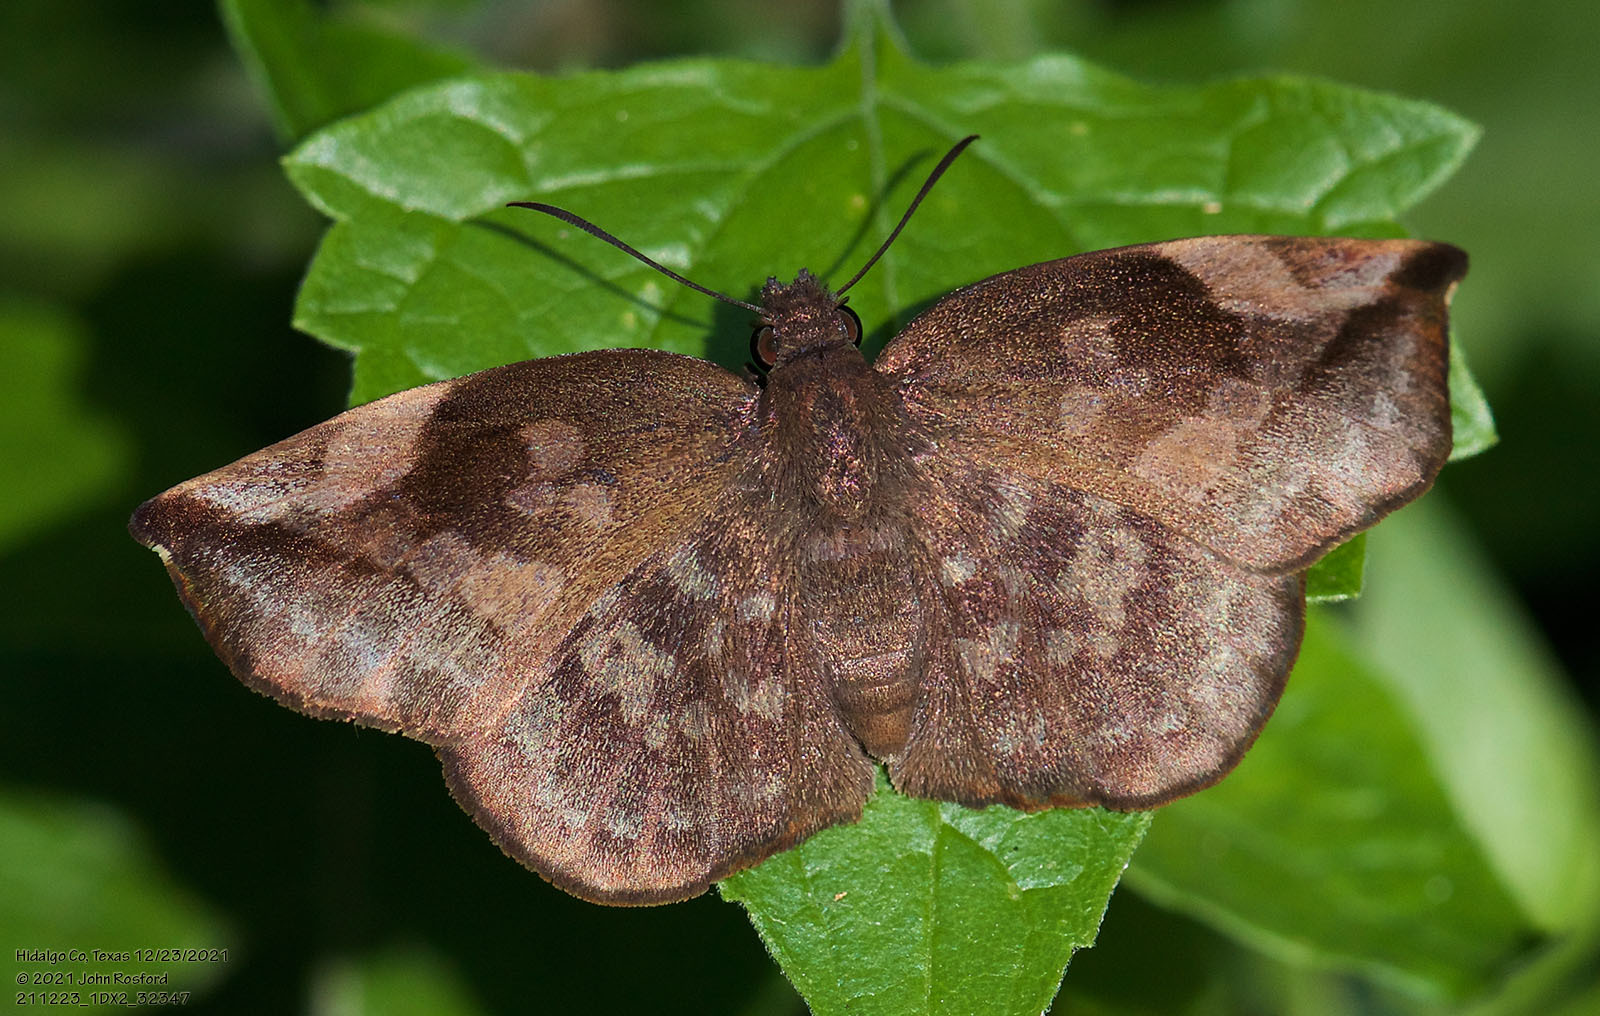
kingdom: Animalia
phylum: Arthropoda
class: Insecta
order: Lepidoptera
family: Hesperiidae
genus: Achlyodes
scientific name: Achlyodes thraso
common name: Sickle-winged skipper
